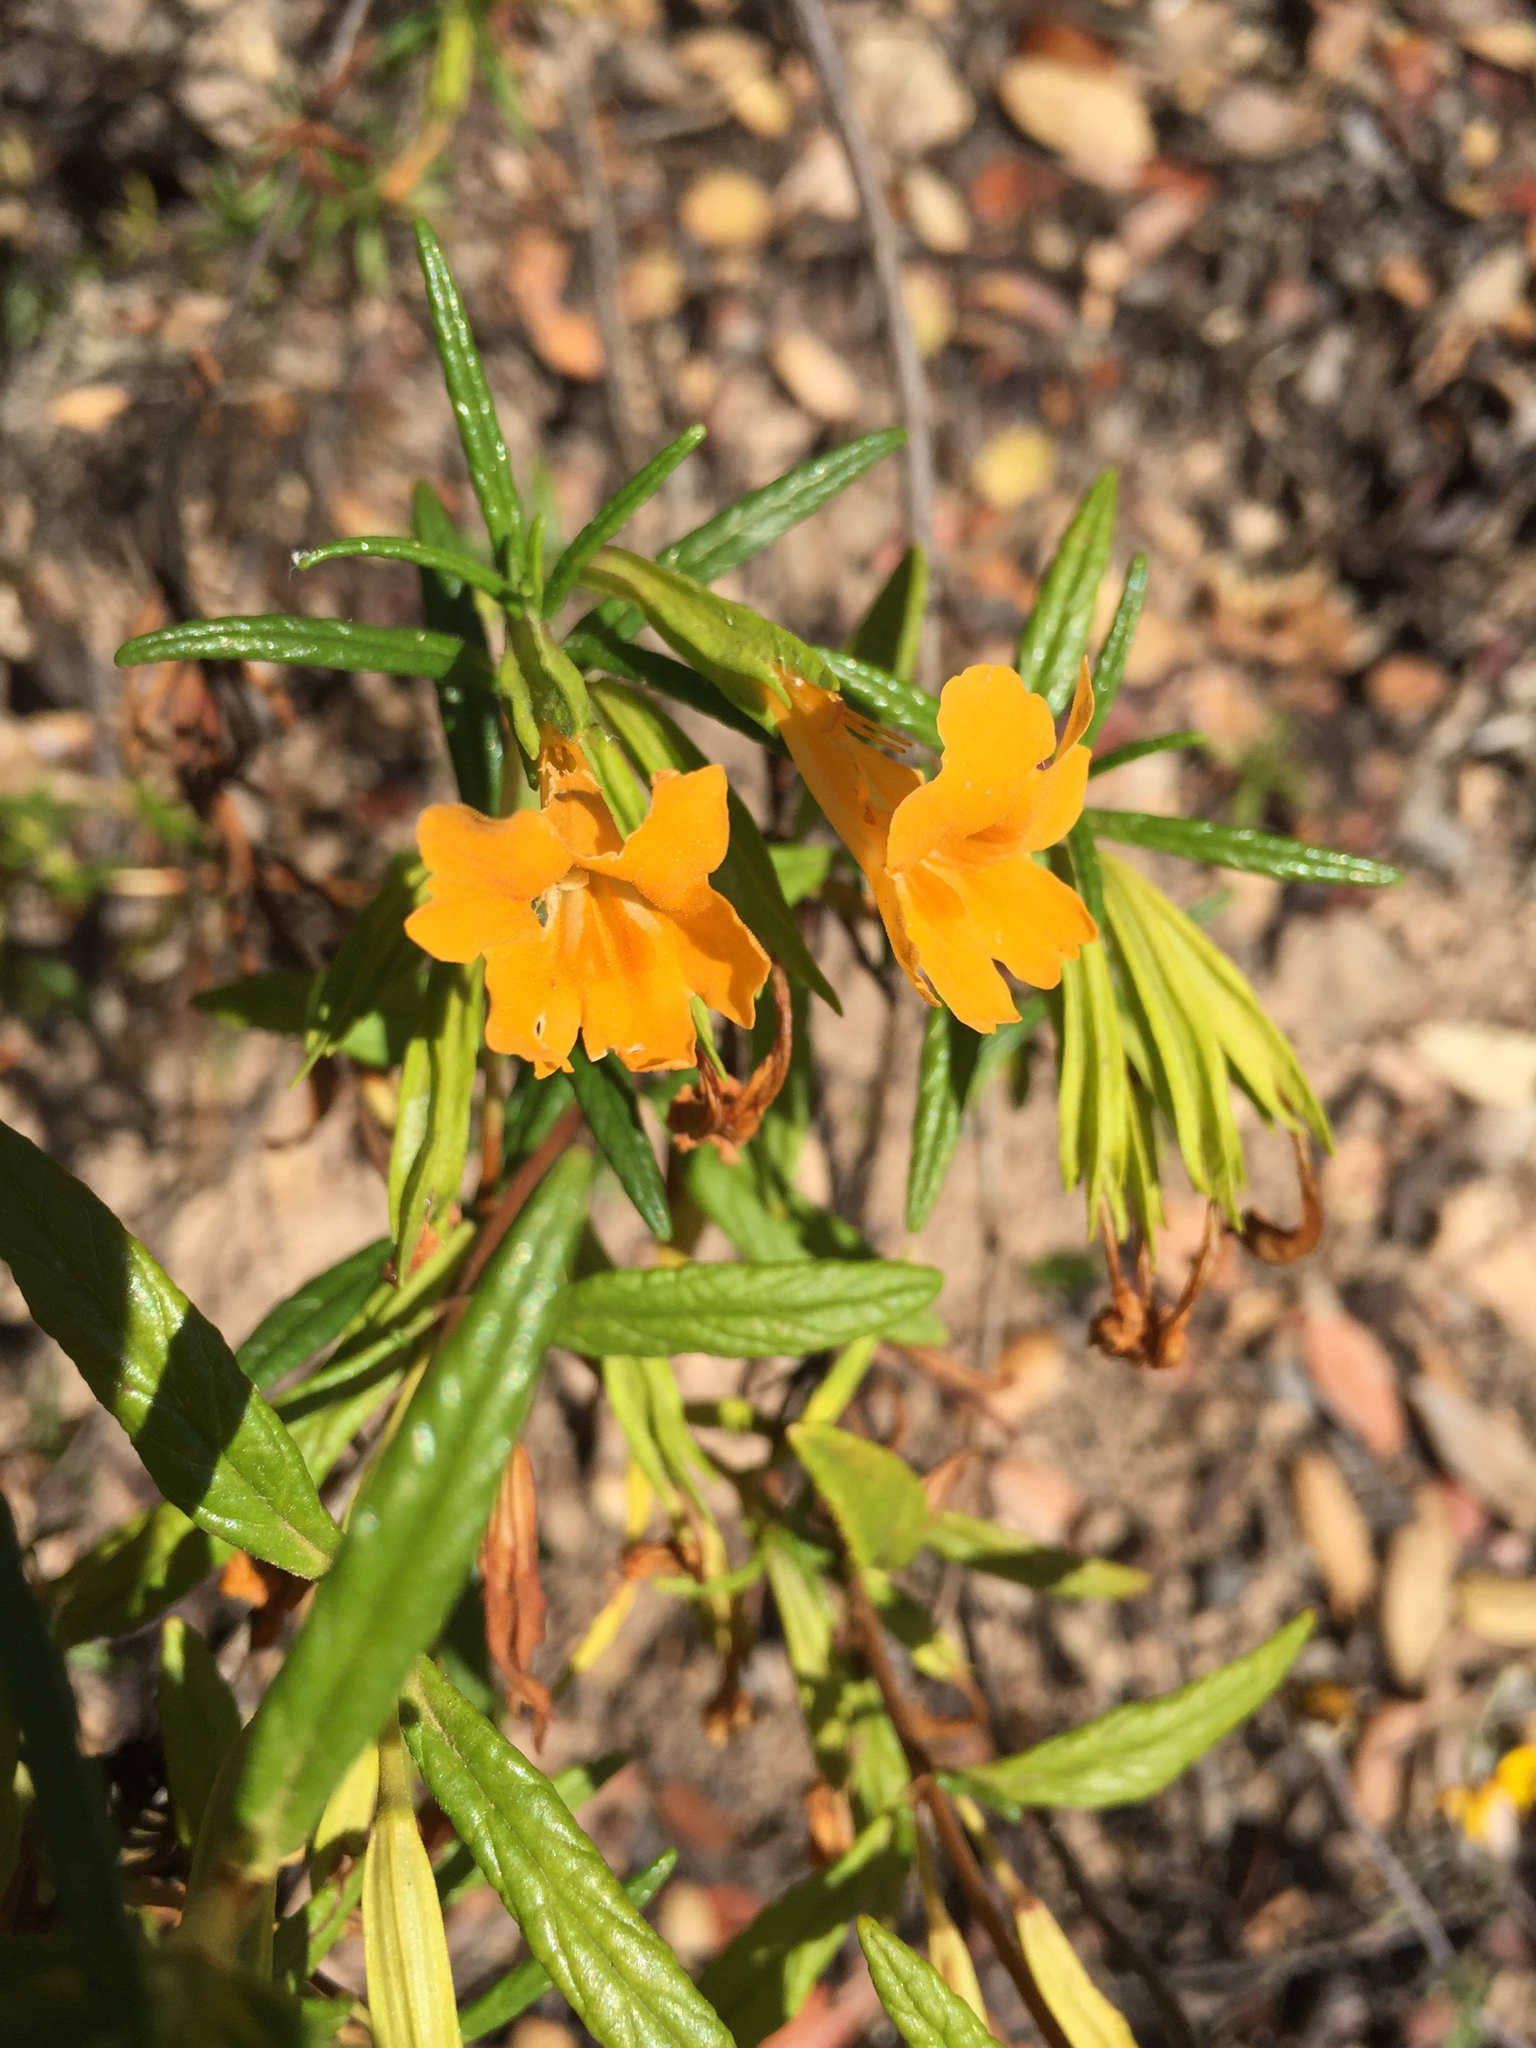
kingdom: Plantae
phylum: Tracheophyta
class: Magnoliopsida
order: Lamiales
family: Phrymaceae
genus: Diplacus
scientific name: Diplacus aurantiacus
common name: Bush monkey-flower
